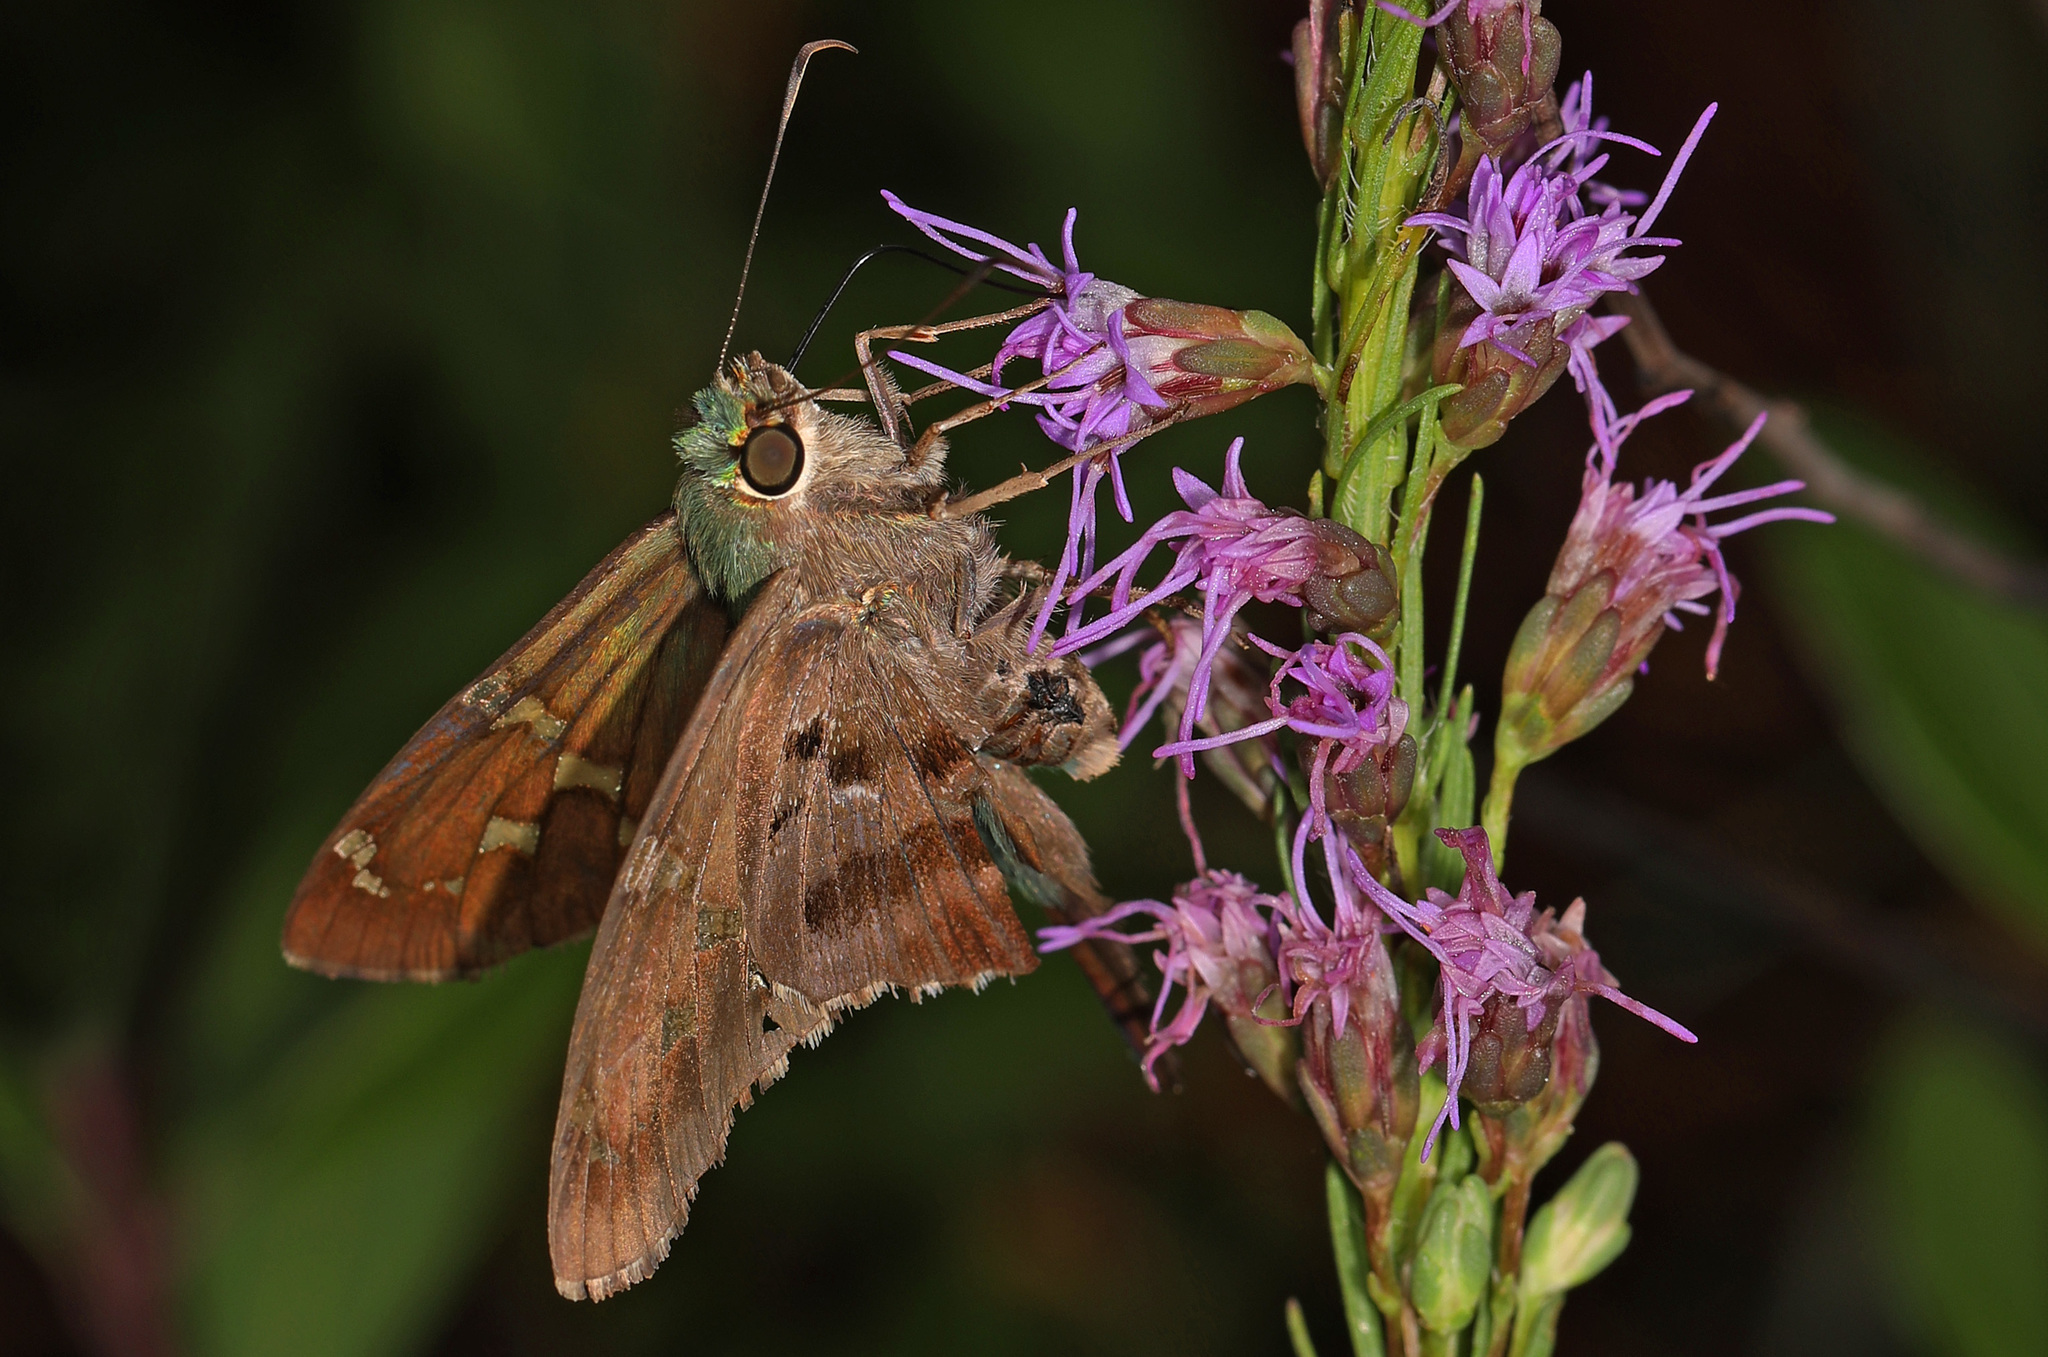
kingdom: Animalia
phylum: Arthropoda
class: Insecta
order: Lepidoptera
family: Hesperiidae
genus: Urbanus
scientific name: Urbanus proteus
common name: Long-tailed skipper
